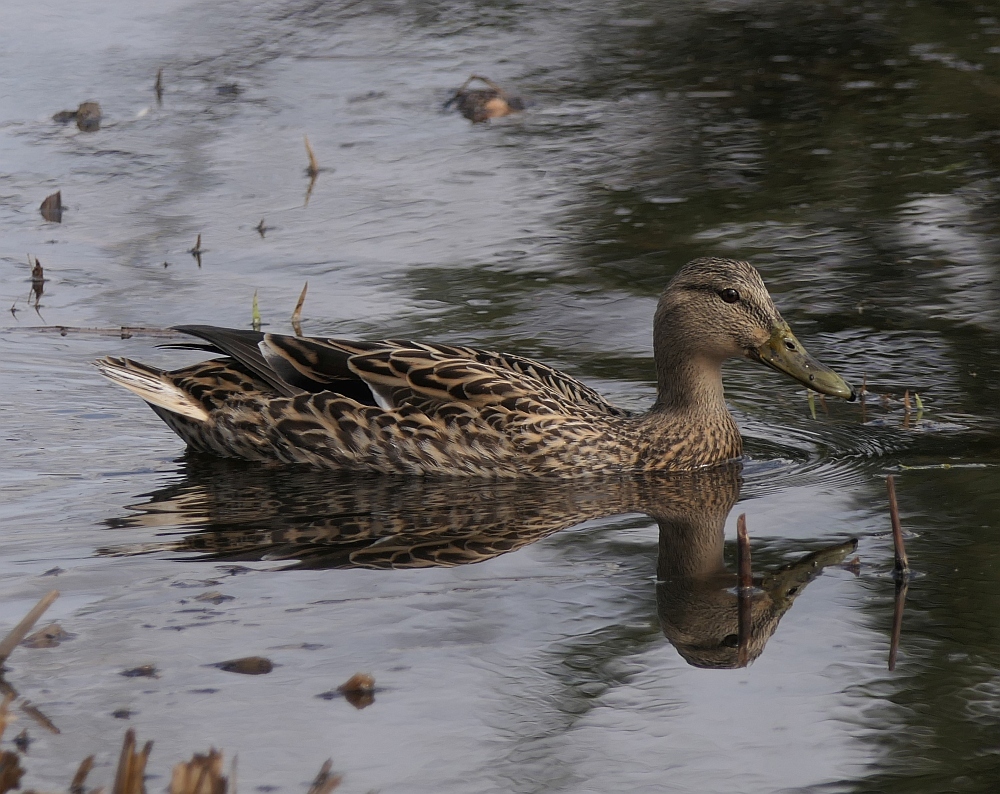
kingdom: Animalia
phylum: Chordata
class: Aves
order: Anseriformes
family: Anatidae
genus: Anas
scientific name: Anas platyrhynchos
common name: Mallard
